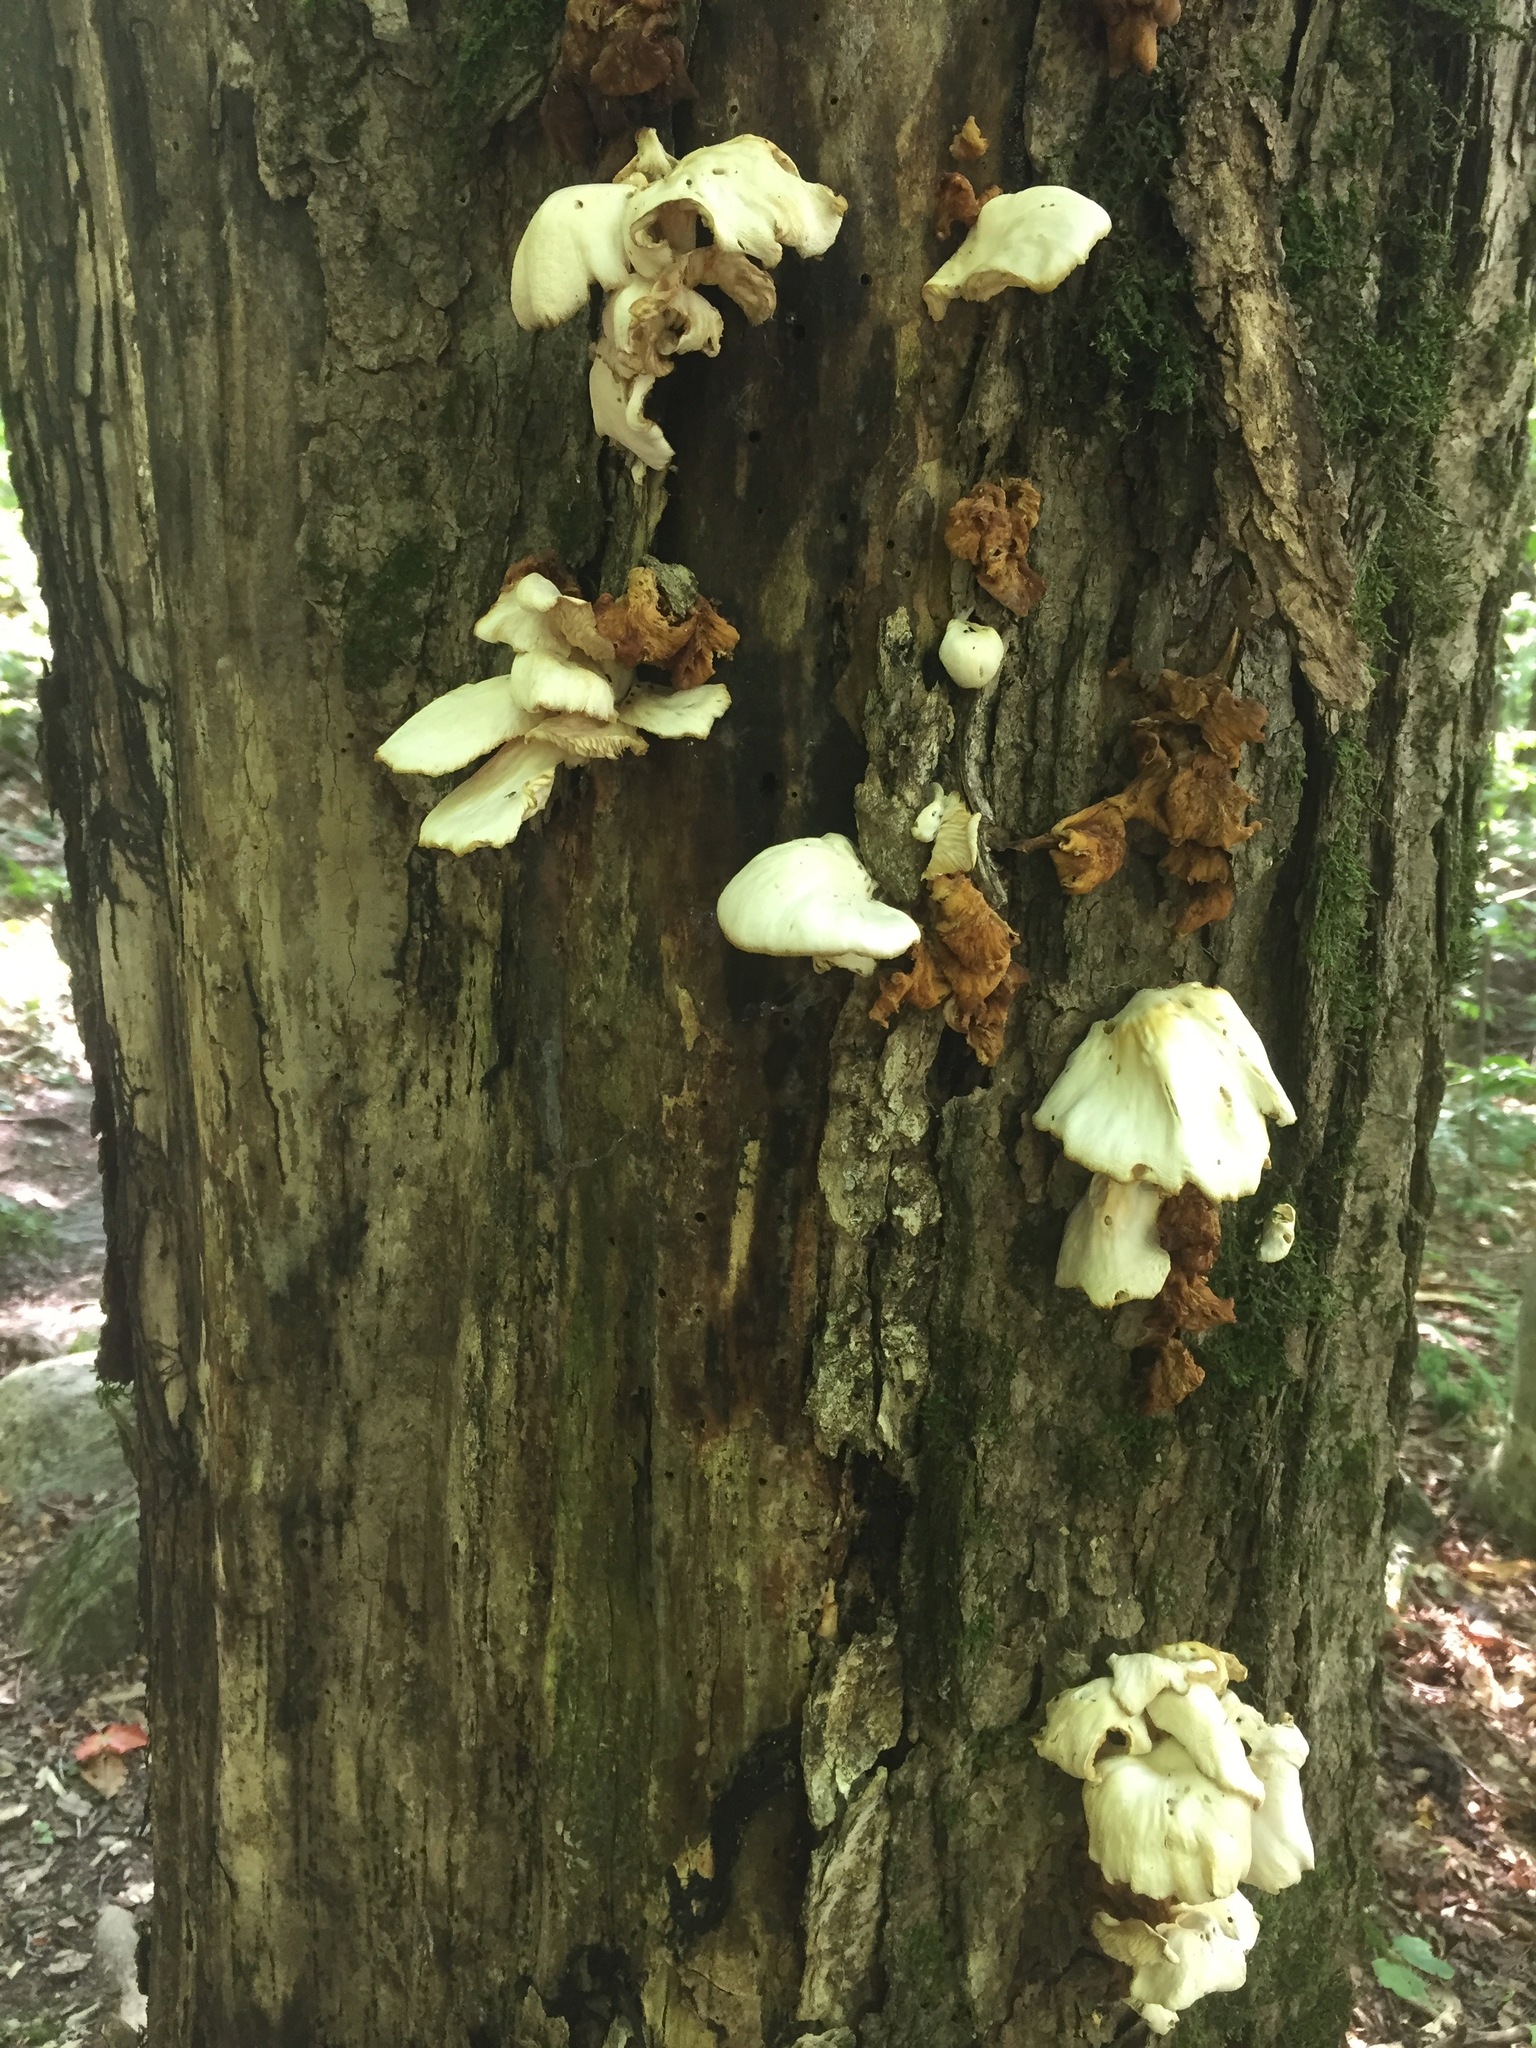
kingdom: Fungi
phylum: Basidiomycota
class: Agaricomycetes
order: Agaricales
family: Pleurotaceae
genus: Pleurotus
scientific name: Pleurotus pulmonarius
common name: Pale oyster
